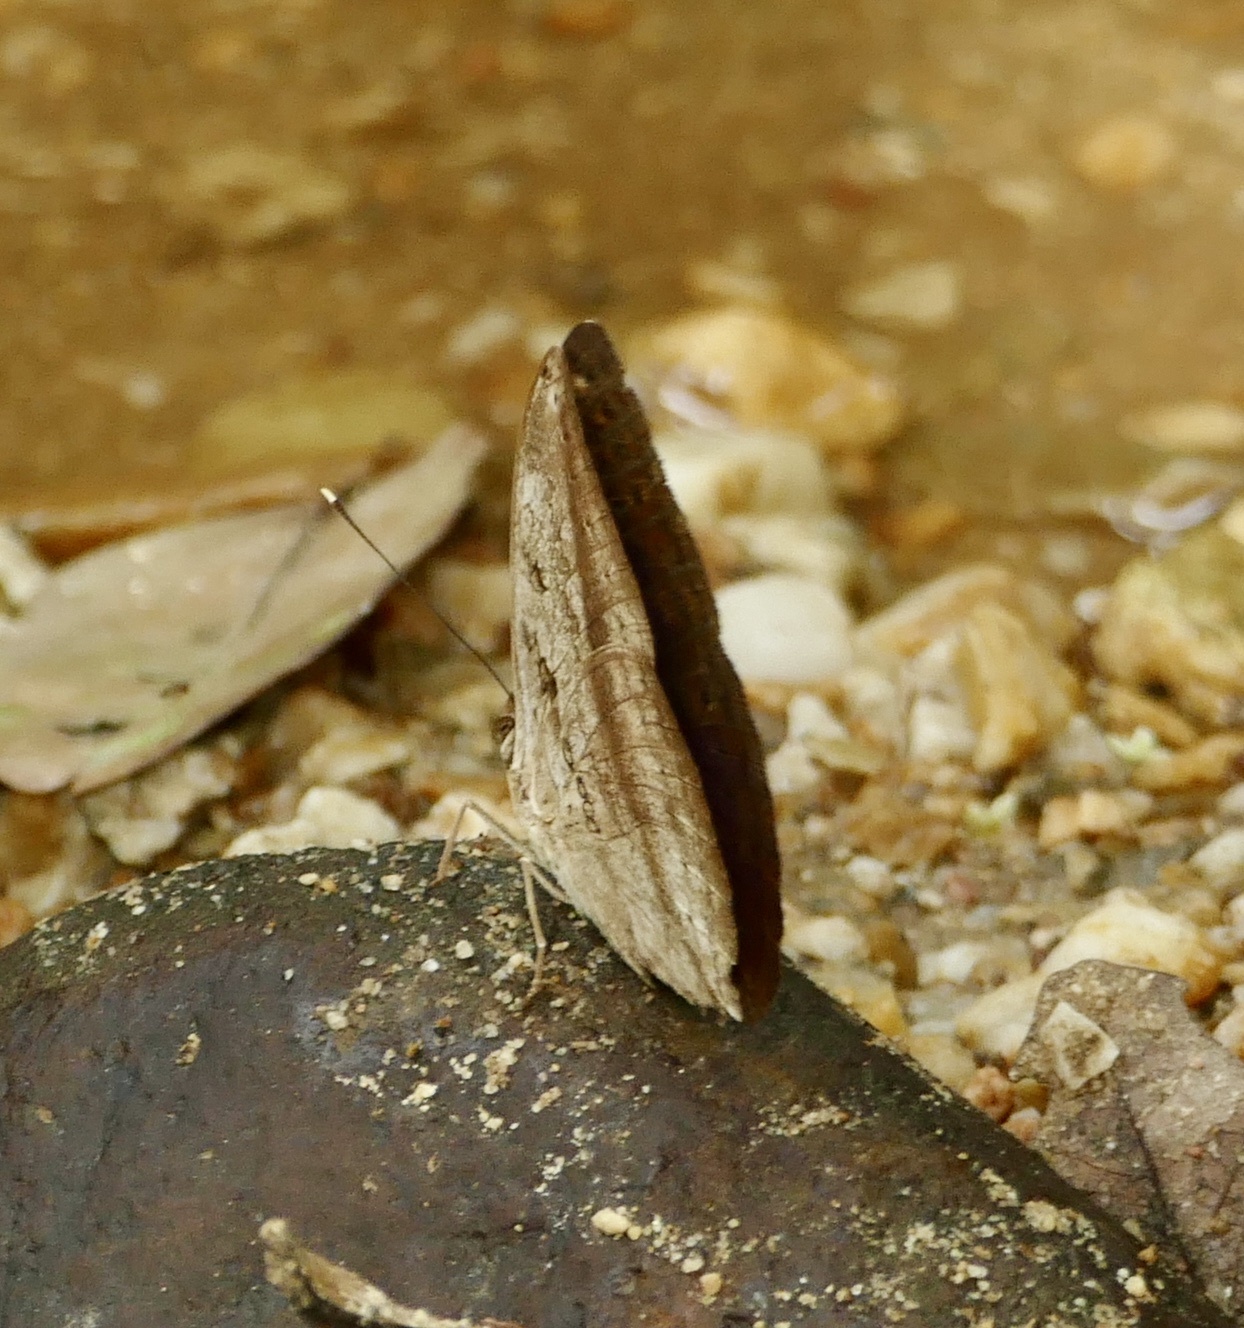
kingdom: Animalia
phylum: Arthropoda
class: Insecta
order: Lepidoptera
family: Nymphalidae
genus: Bebearia
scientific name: Bebearia mardania
